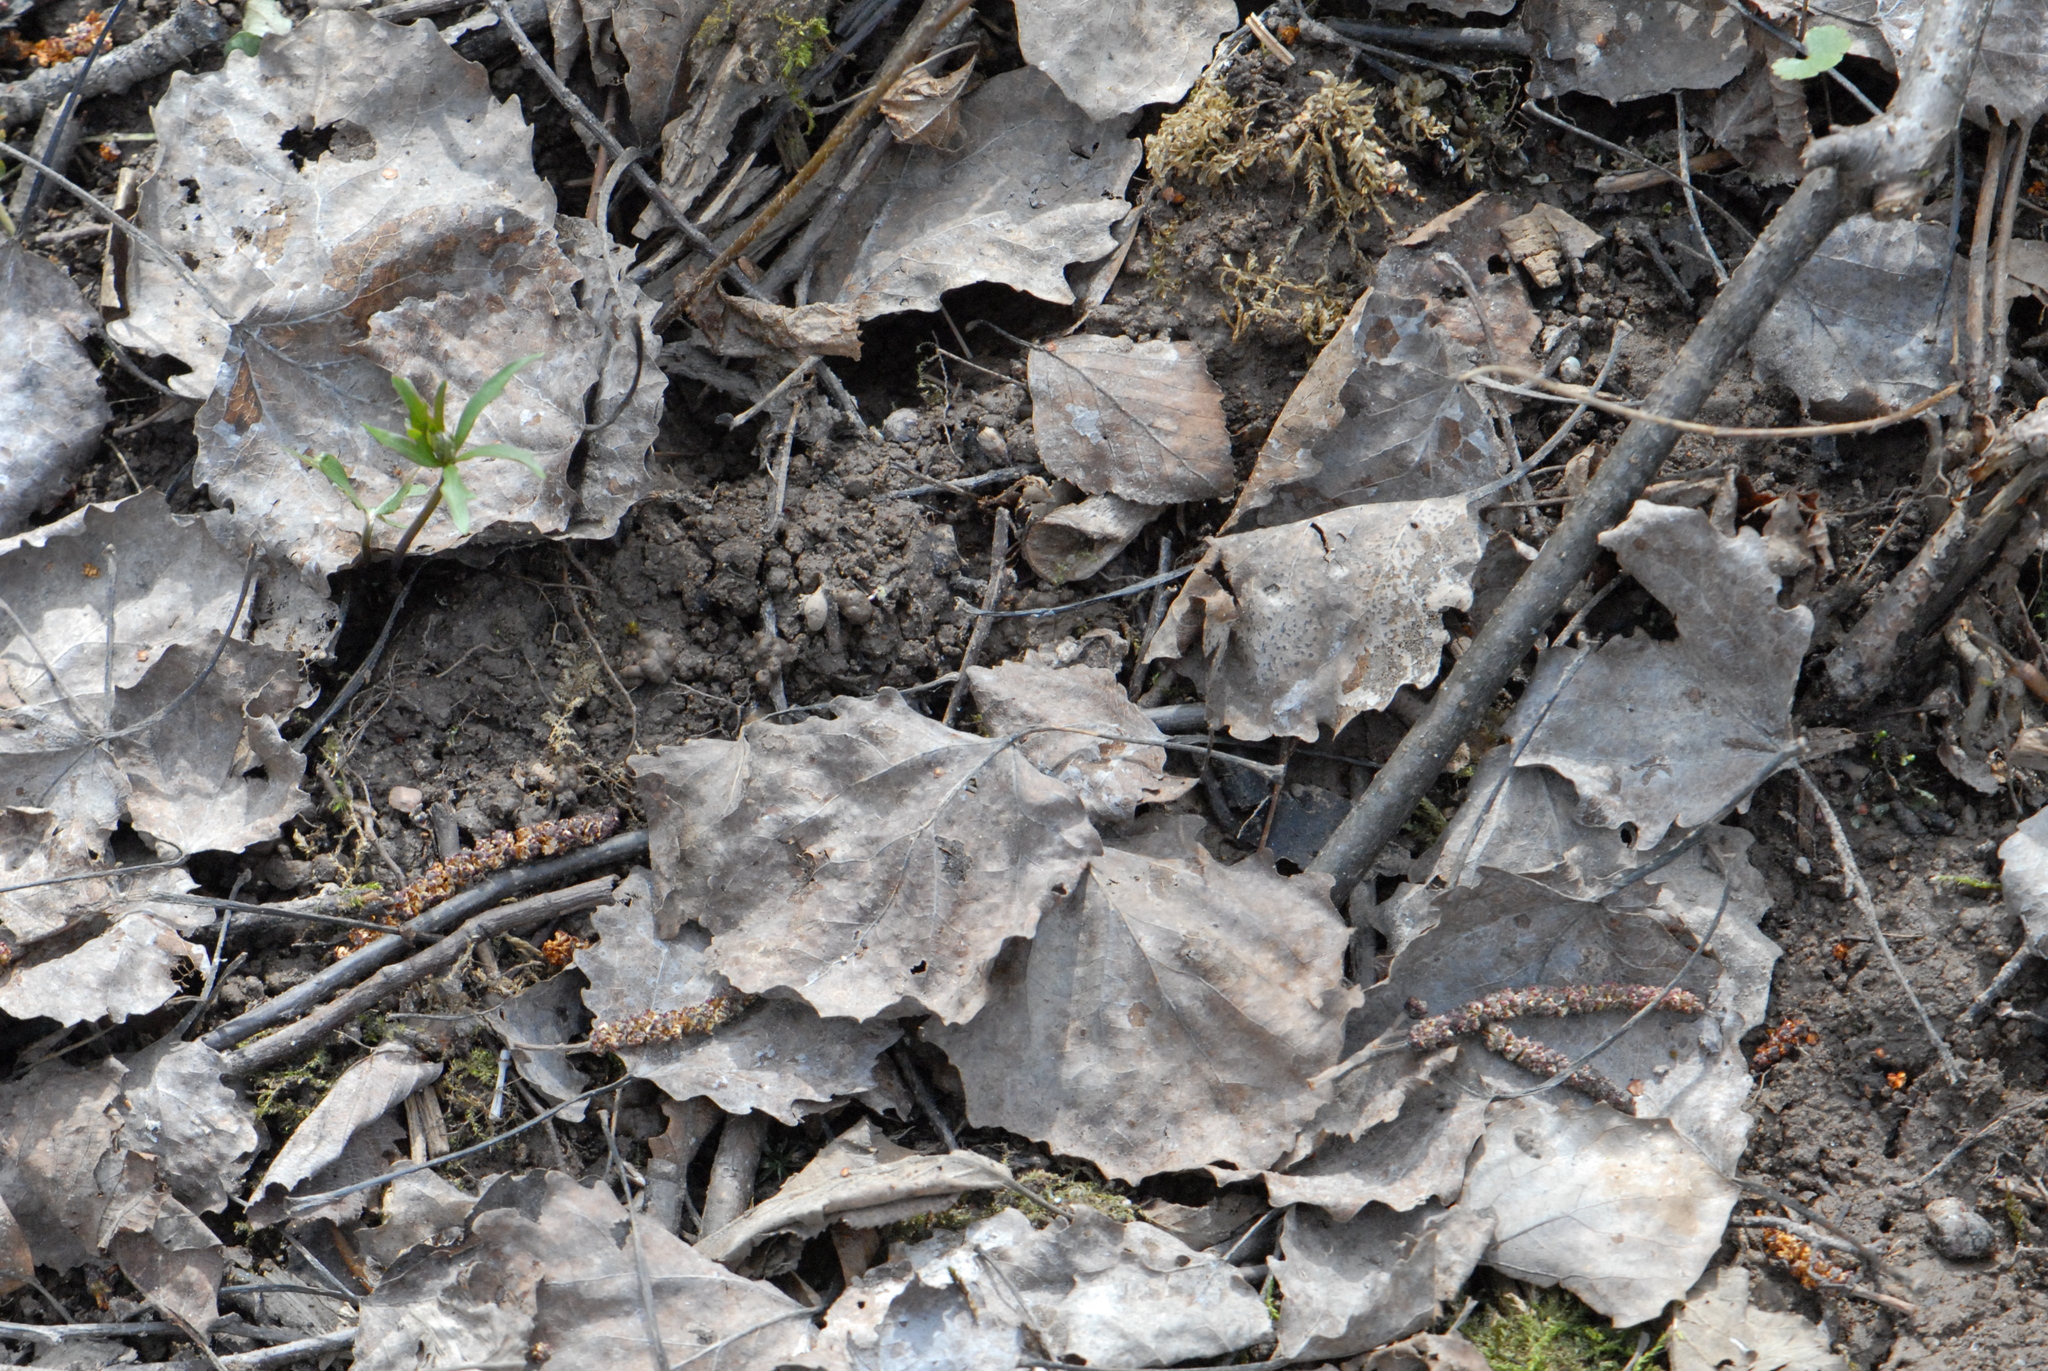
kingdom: Plantae
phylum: Tracheophyta
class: Magnoliopsida
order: Malpighiales
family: Salicaceae
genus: Populus
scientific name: Populus tremula
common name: European aspen
